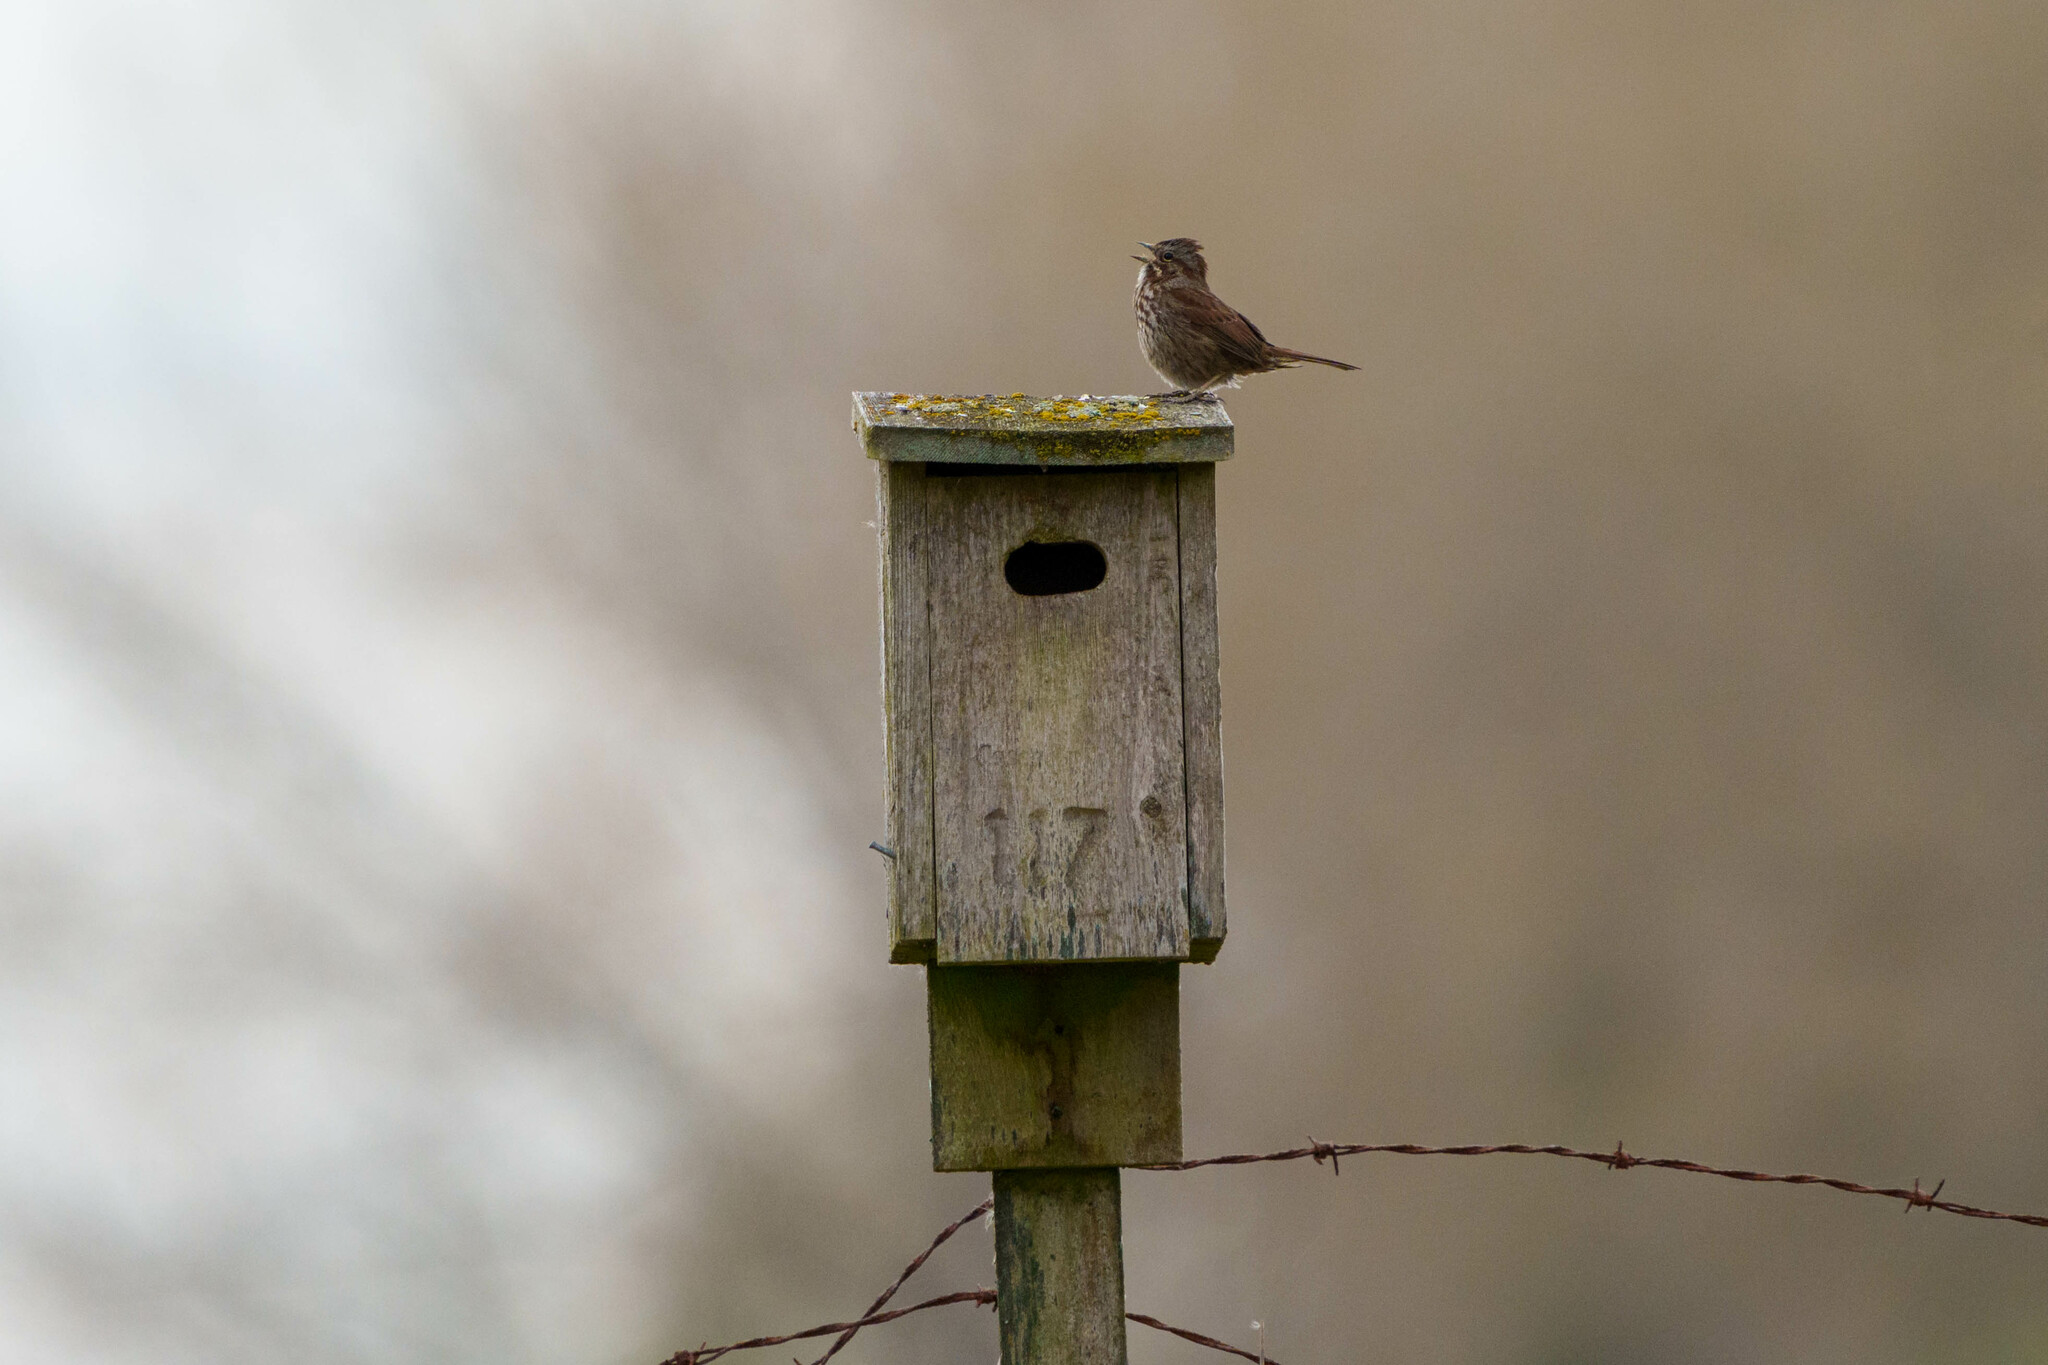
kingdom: Animalia
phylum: Chordata
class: Aves
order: Passeriformes
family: Passerellidae
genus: Melospiza
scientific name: Melospiza melodia
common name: Song sparrow
